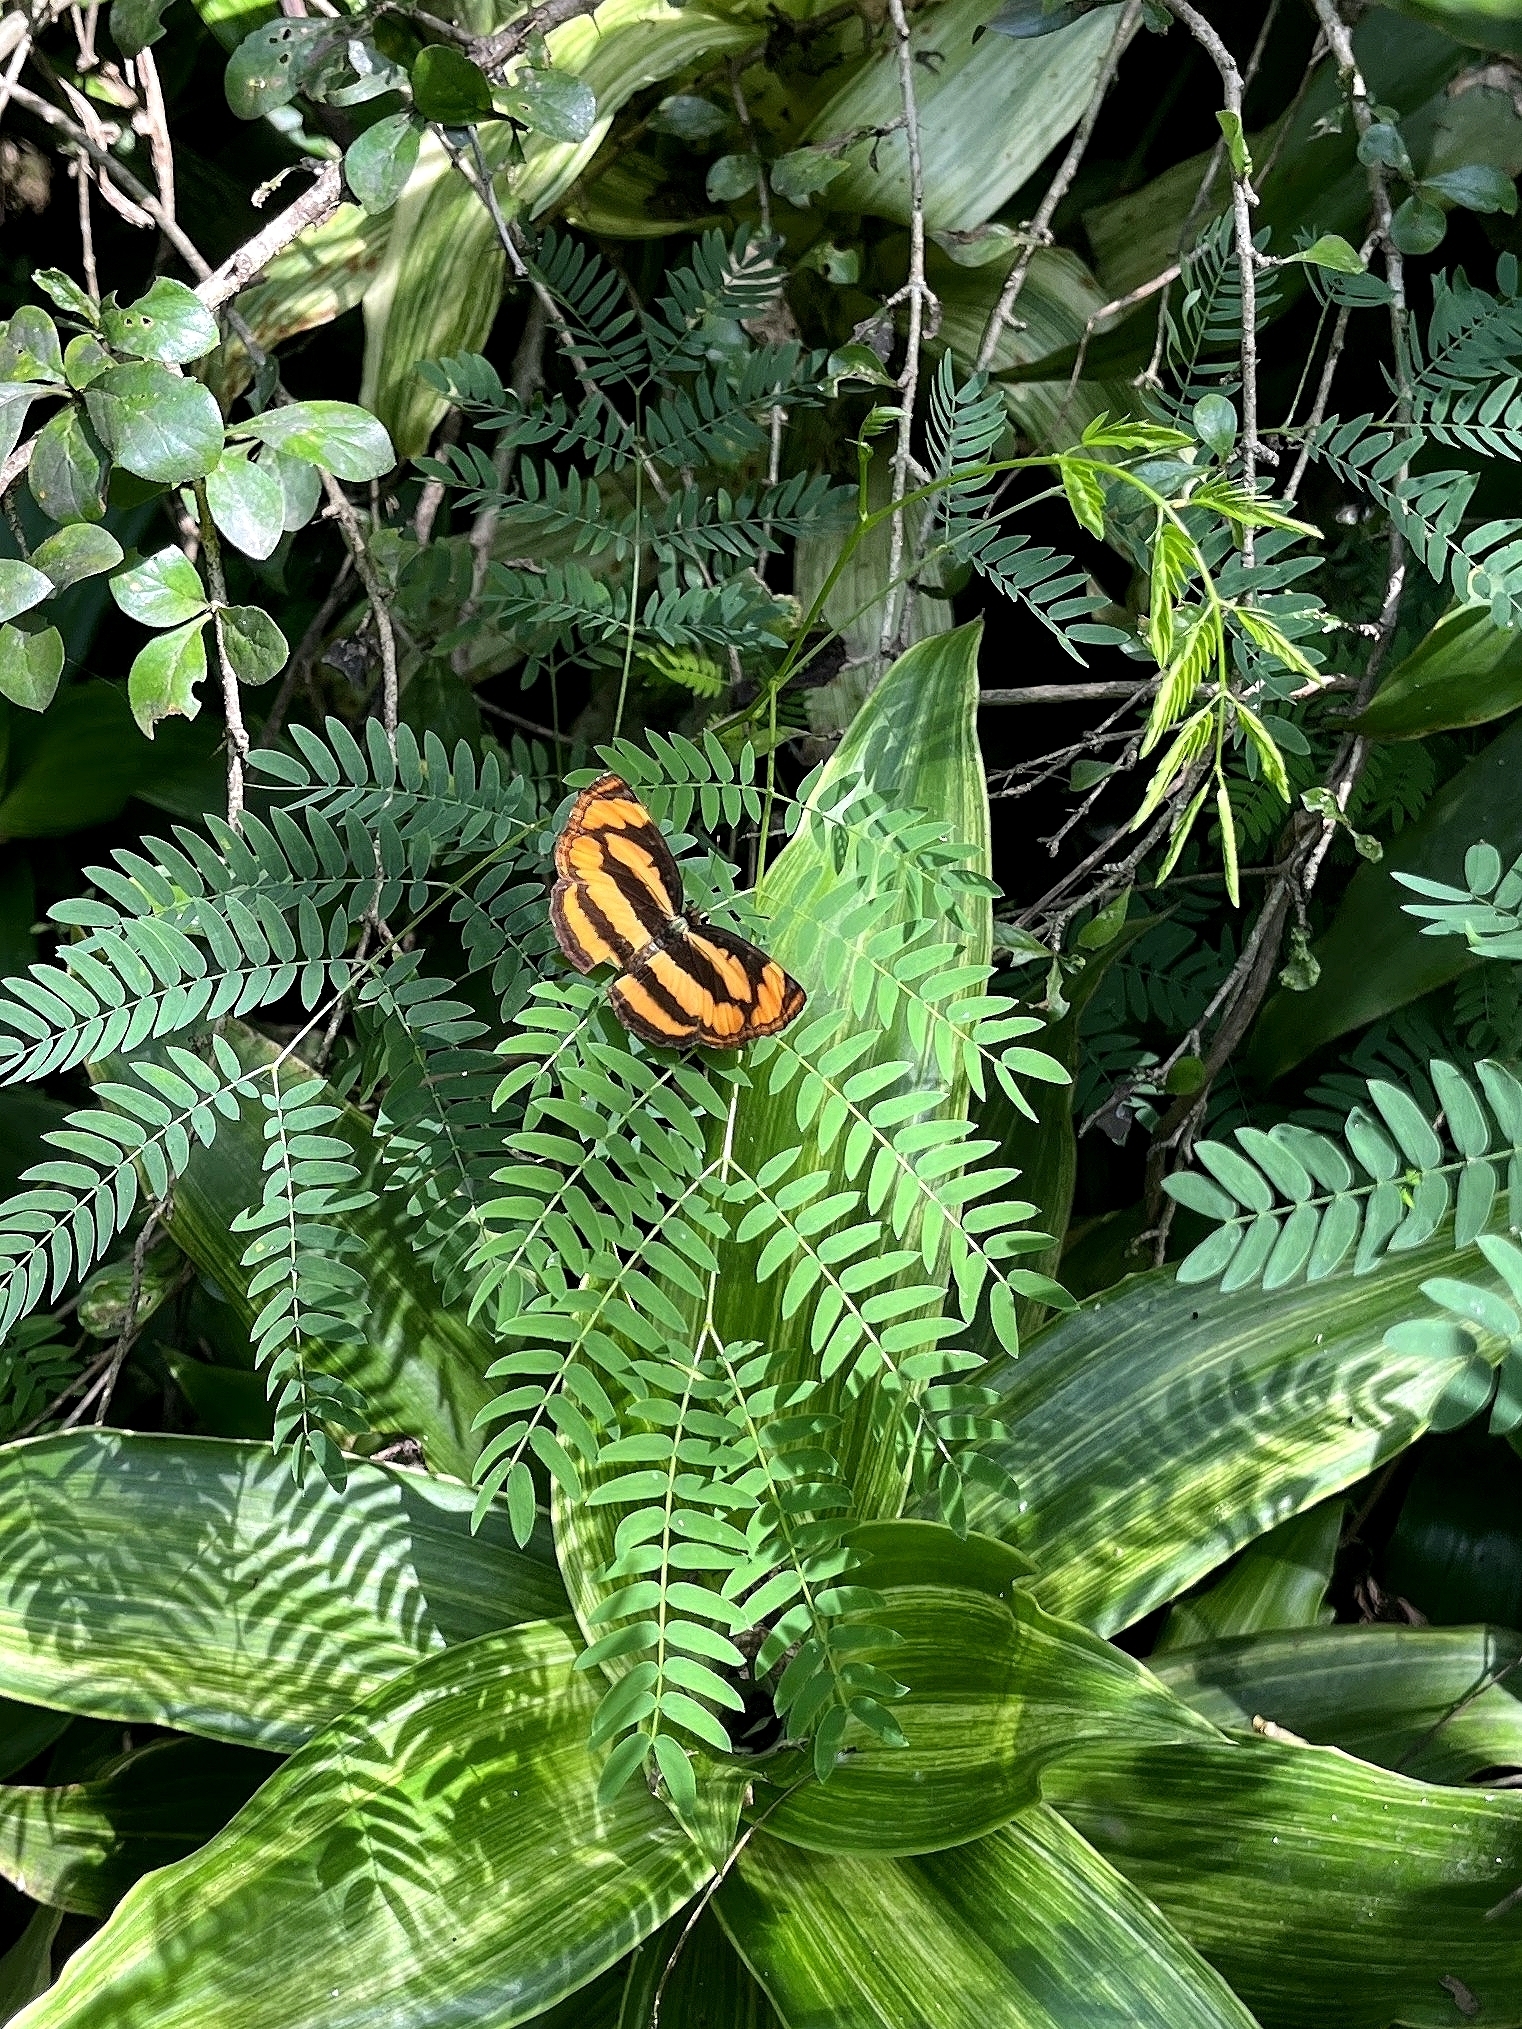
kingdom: Animalia
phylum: Arthropoda
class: Insecta
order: Lepidoptera
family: Nymphalidae
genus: Pantoporia
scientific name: Pantoporia hordonia
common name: Common lascar
